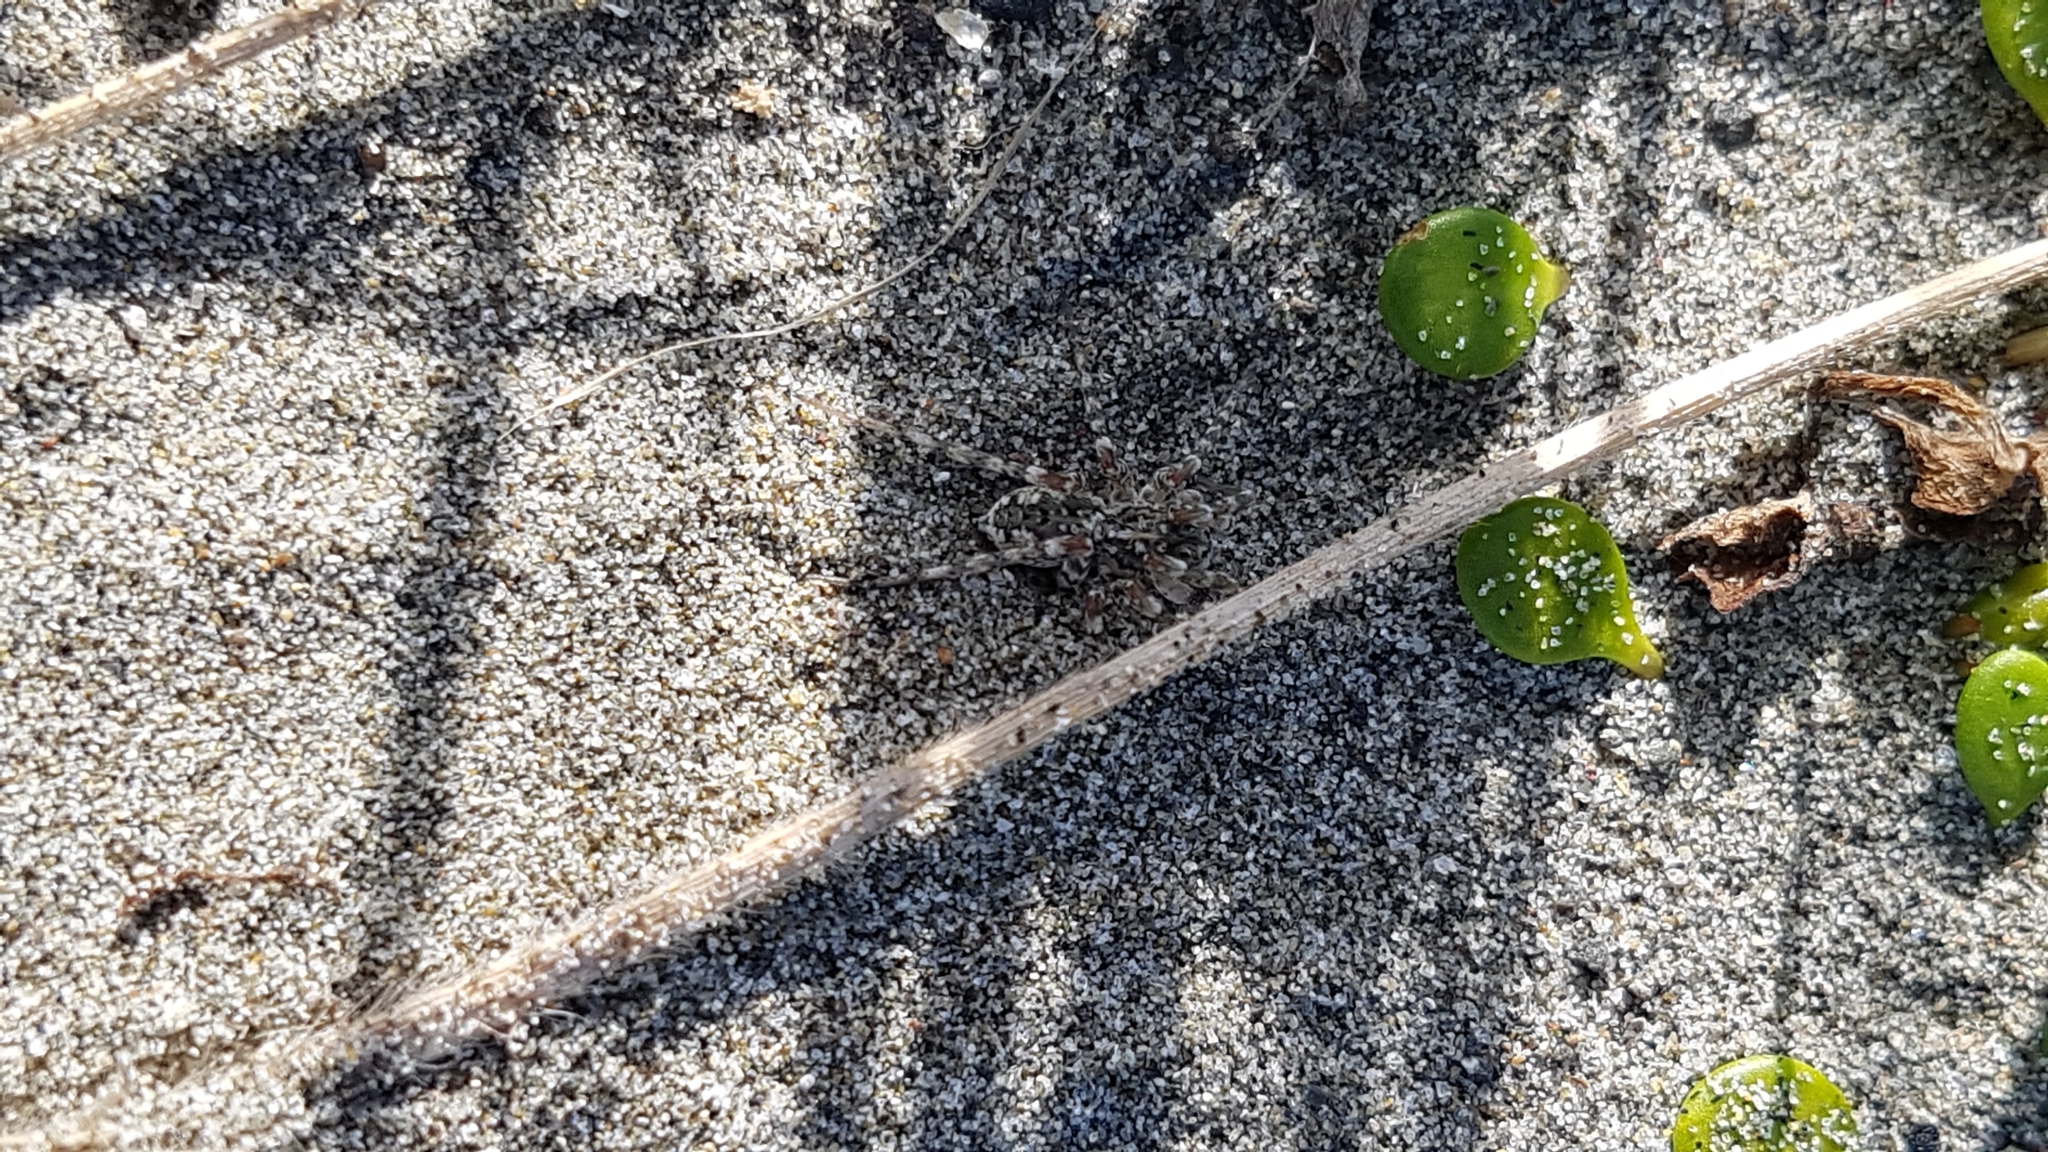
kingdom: Animalia
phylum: Arthropoda
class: Arachnida
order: Araneae
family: Lycosidae
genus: Anoteropsis
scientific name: Anoteropsis litoralis
